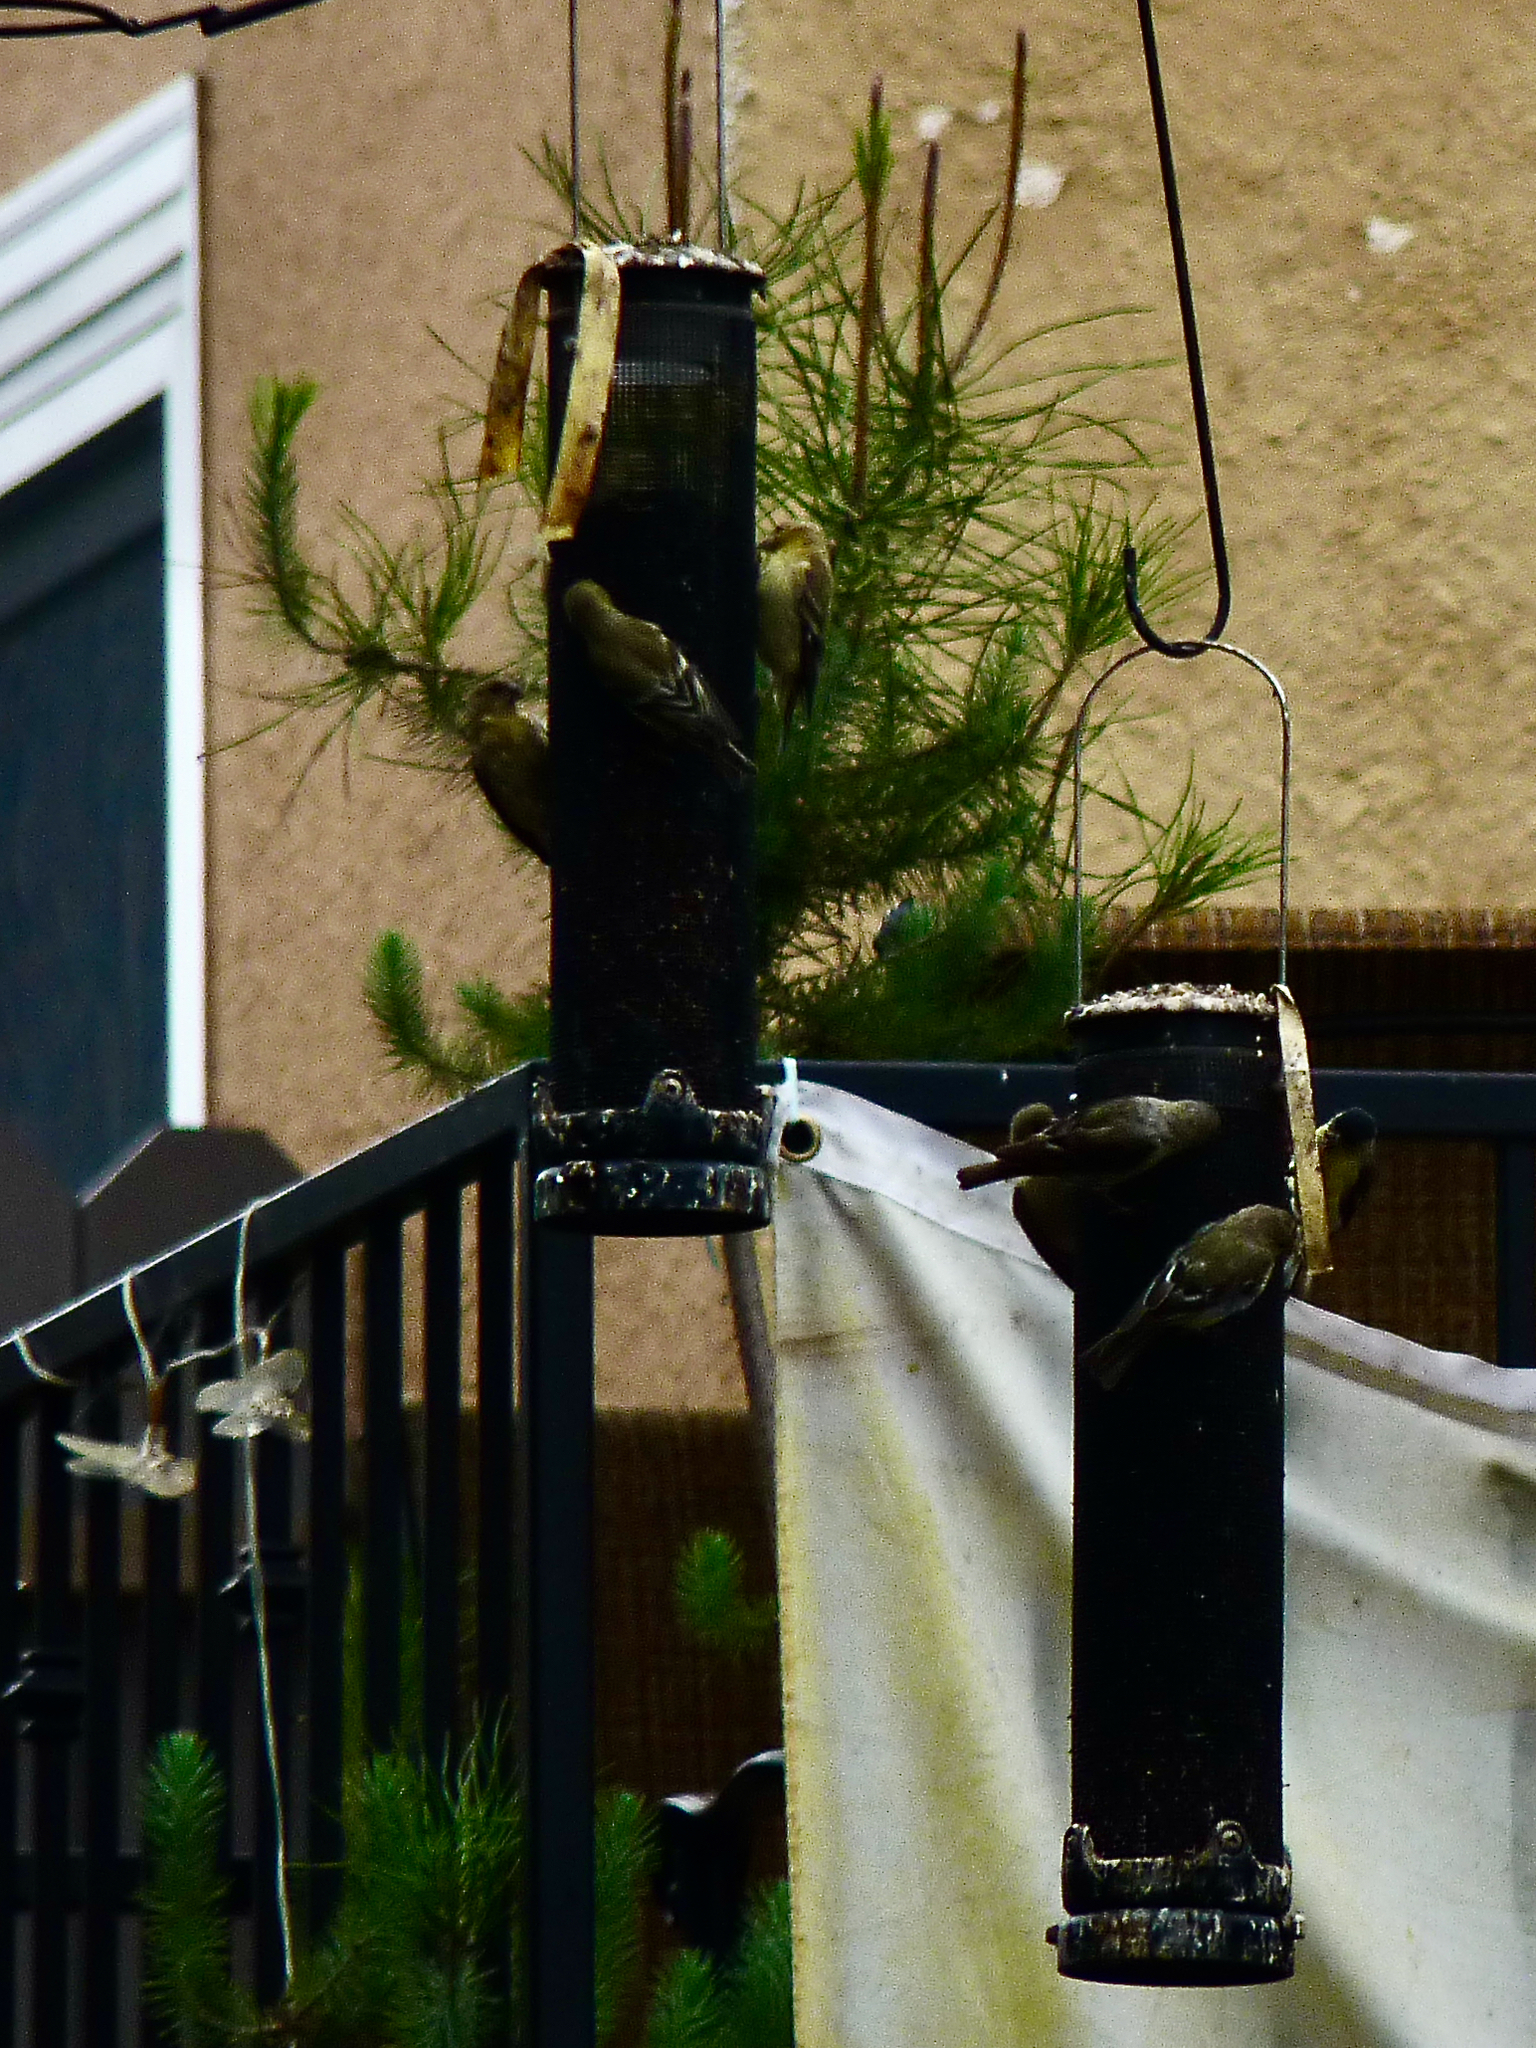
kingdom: Animalia
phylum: Chordata
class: Aves
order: Passeriformes
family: Fringillidae
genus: Spinus
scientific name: Spinus psaltria
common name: Lesser goldfinch
